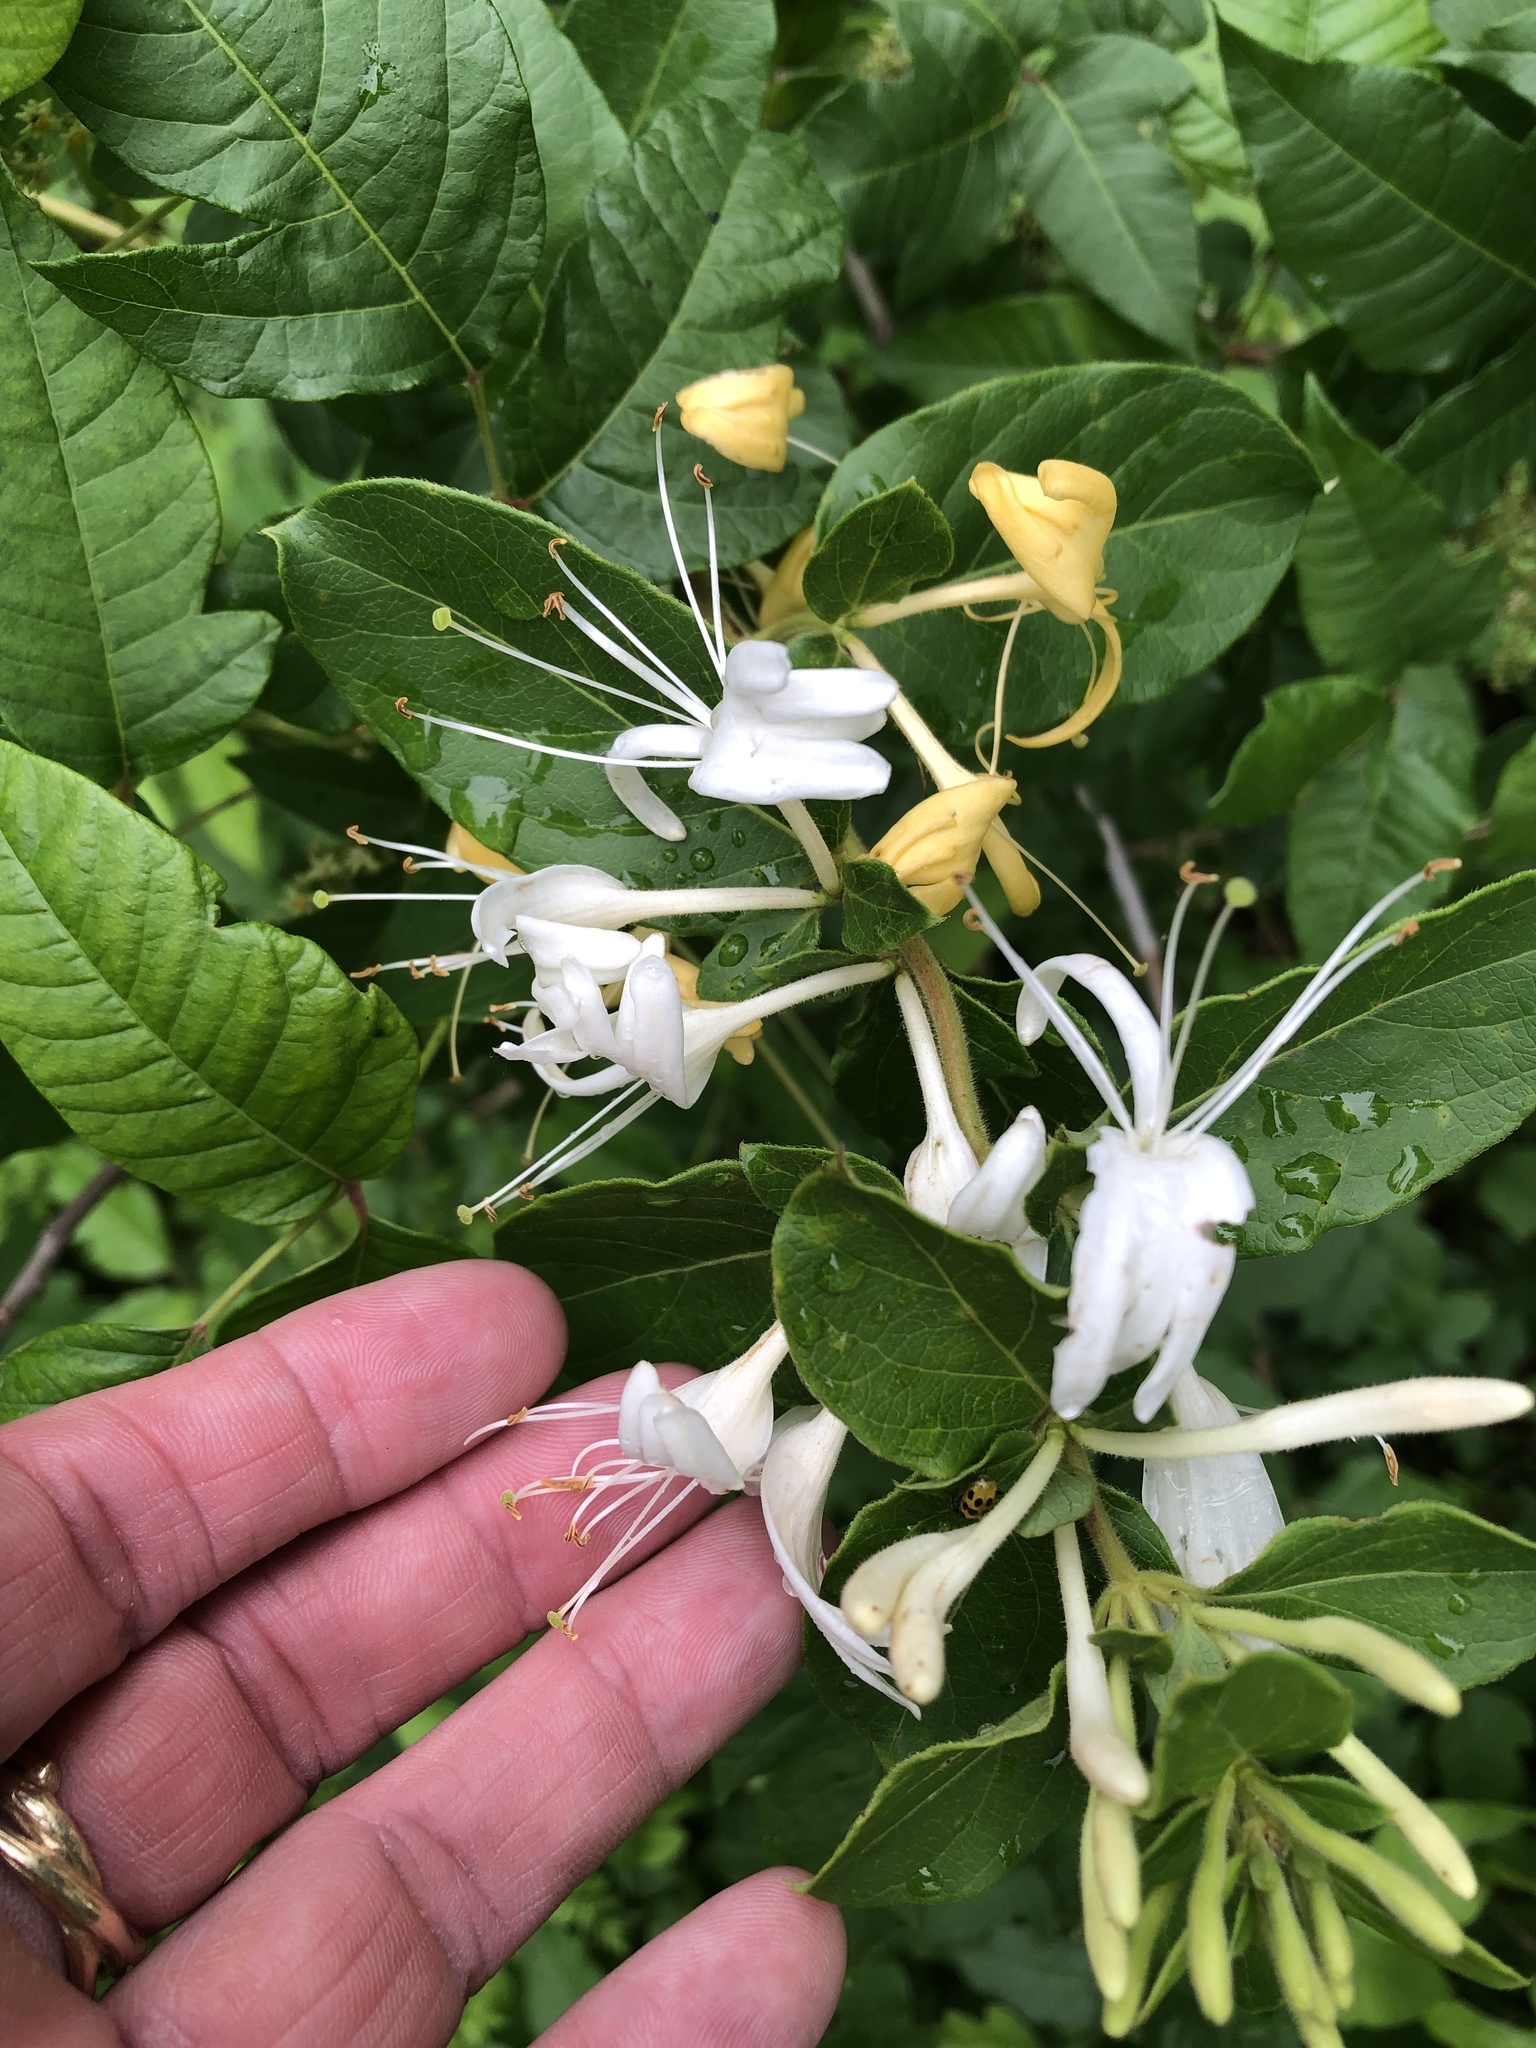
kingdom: Plantae
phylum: Tracheophyta
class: Magnoliopsida
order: Dipsacales
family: Caprifoliaceae
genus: Lonicera
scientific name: Lonicera japonica
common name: Japanese honeysuckle
